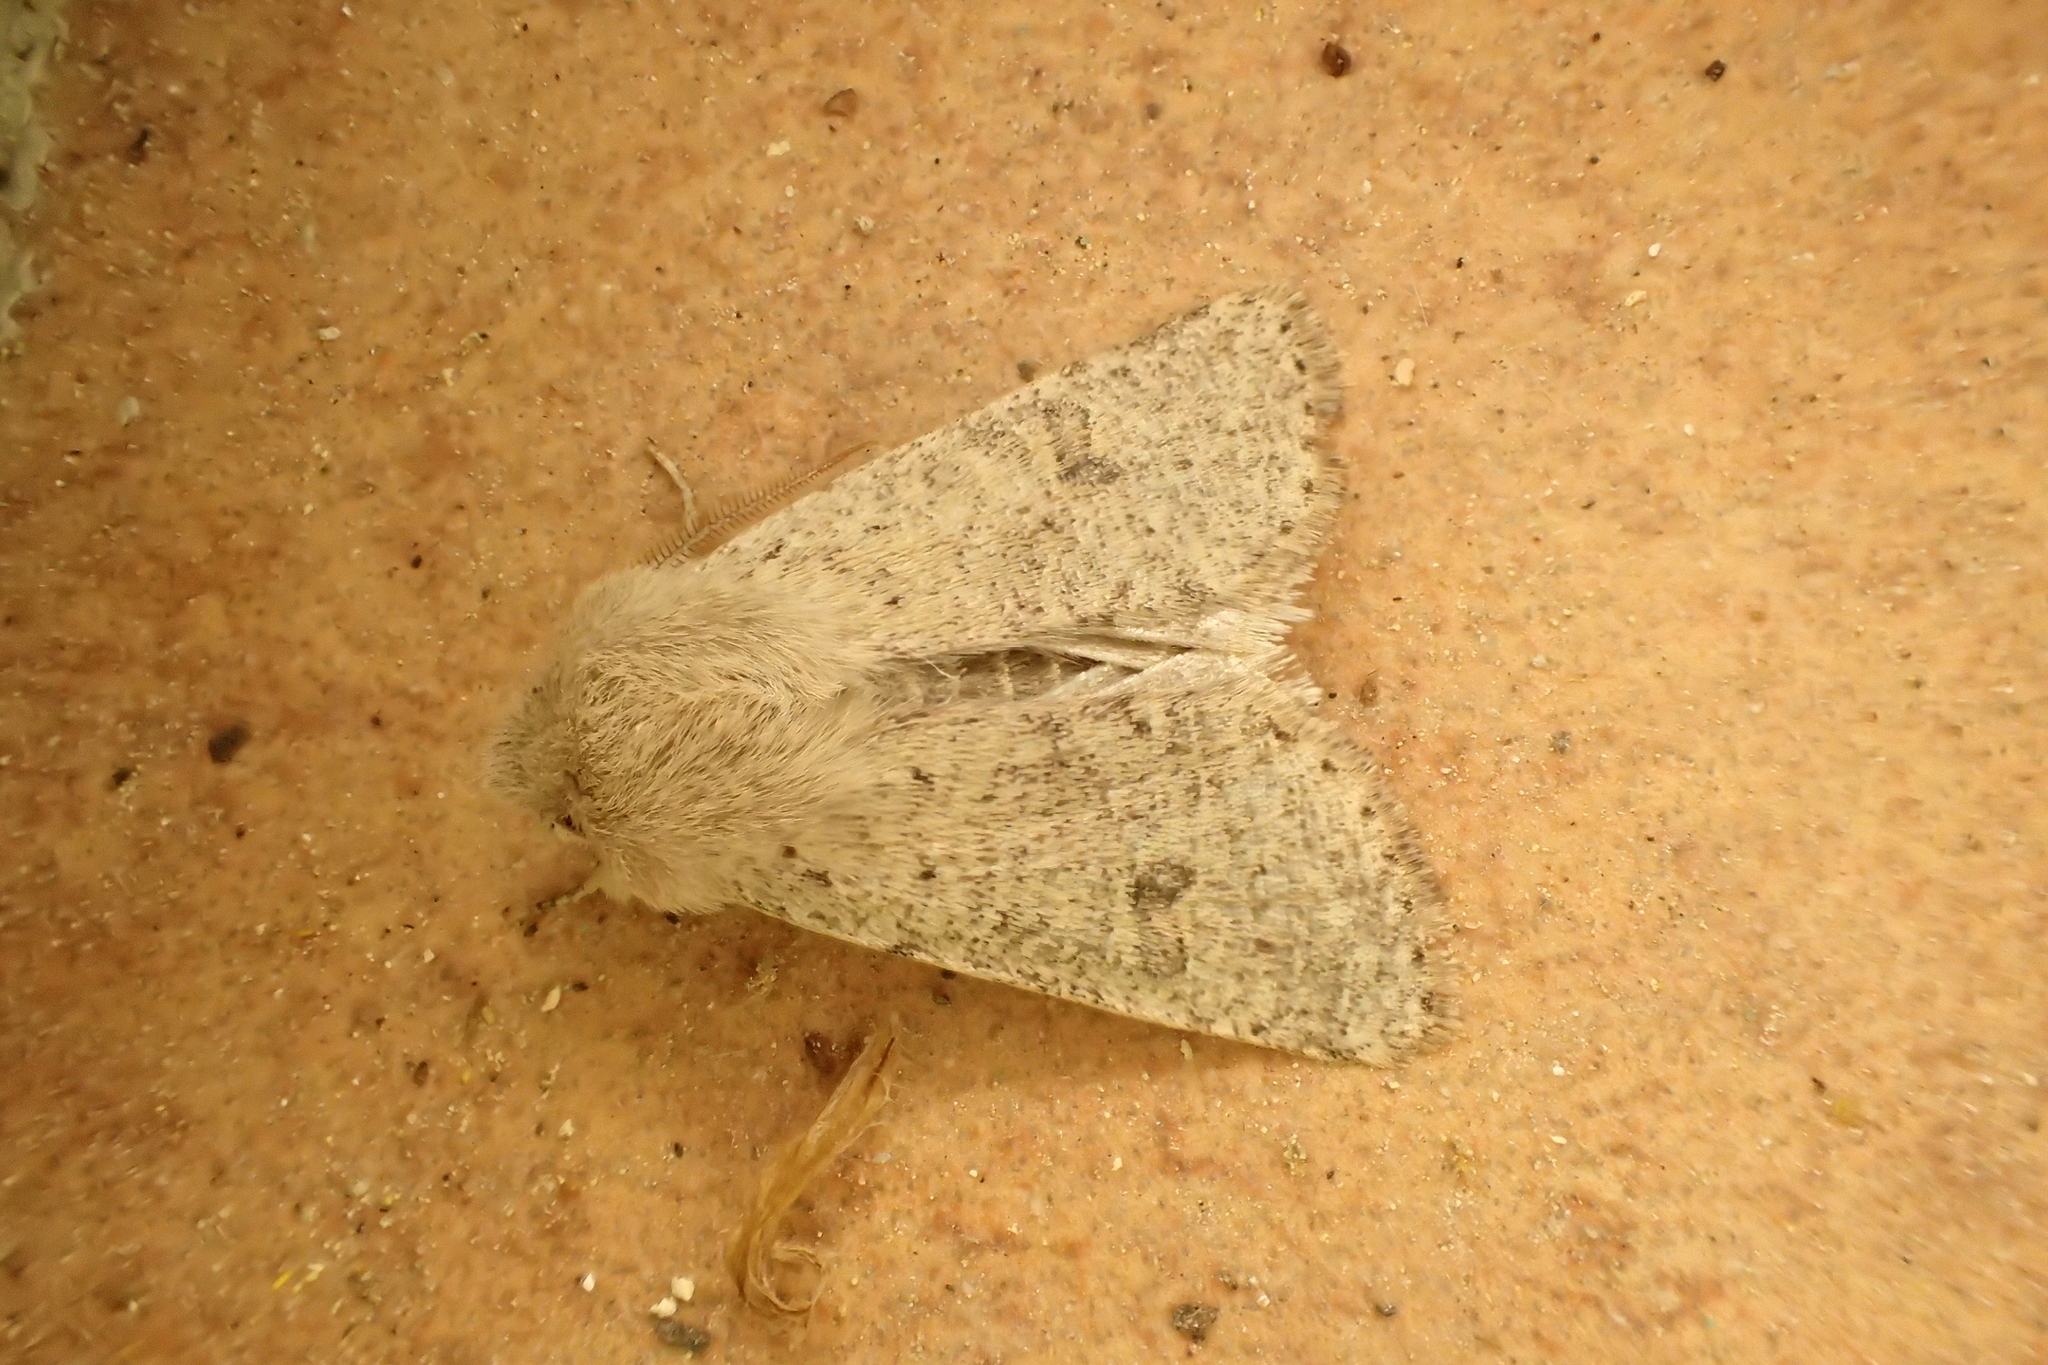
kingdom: Animalia
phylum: Arthropoda
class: Insecta
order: Lepidoptera
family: Noctuidae
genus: Orthosia
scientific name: Orthosia cruda
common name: Small quaker
